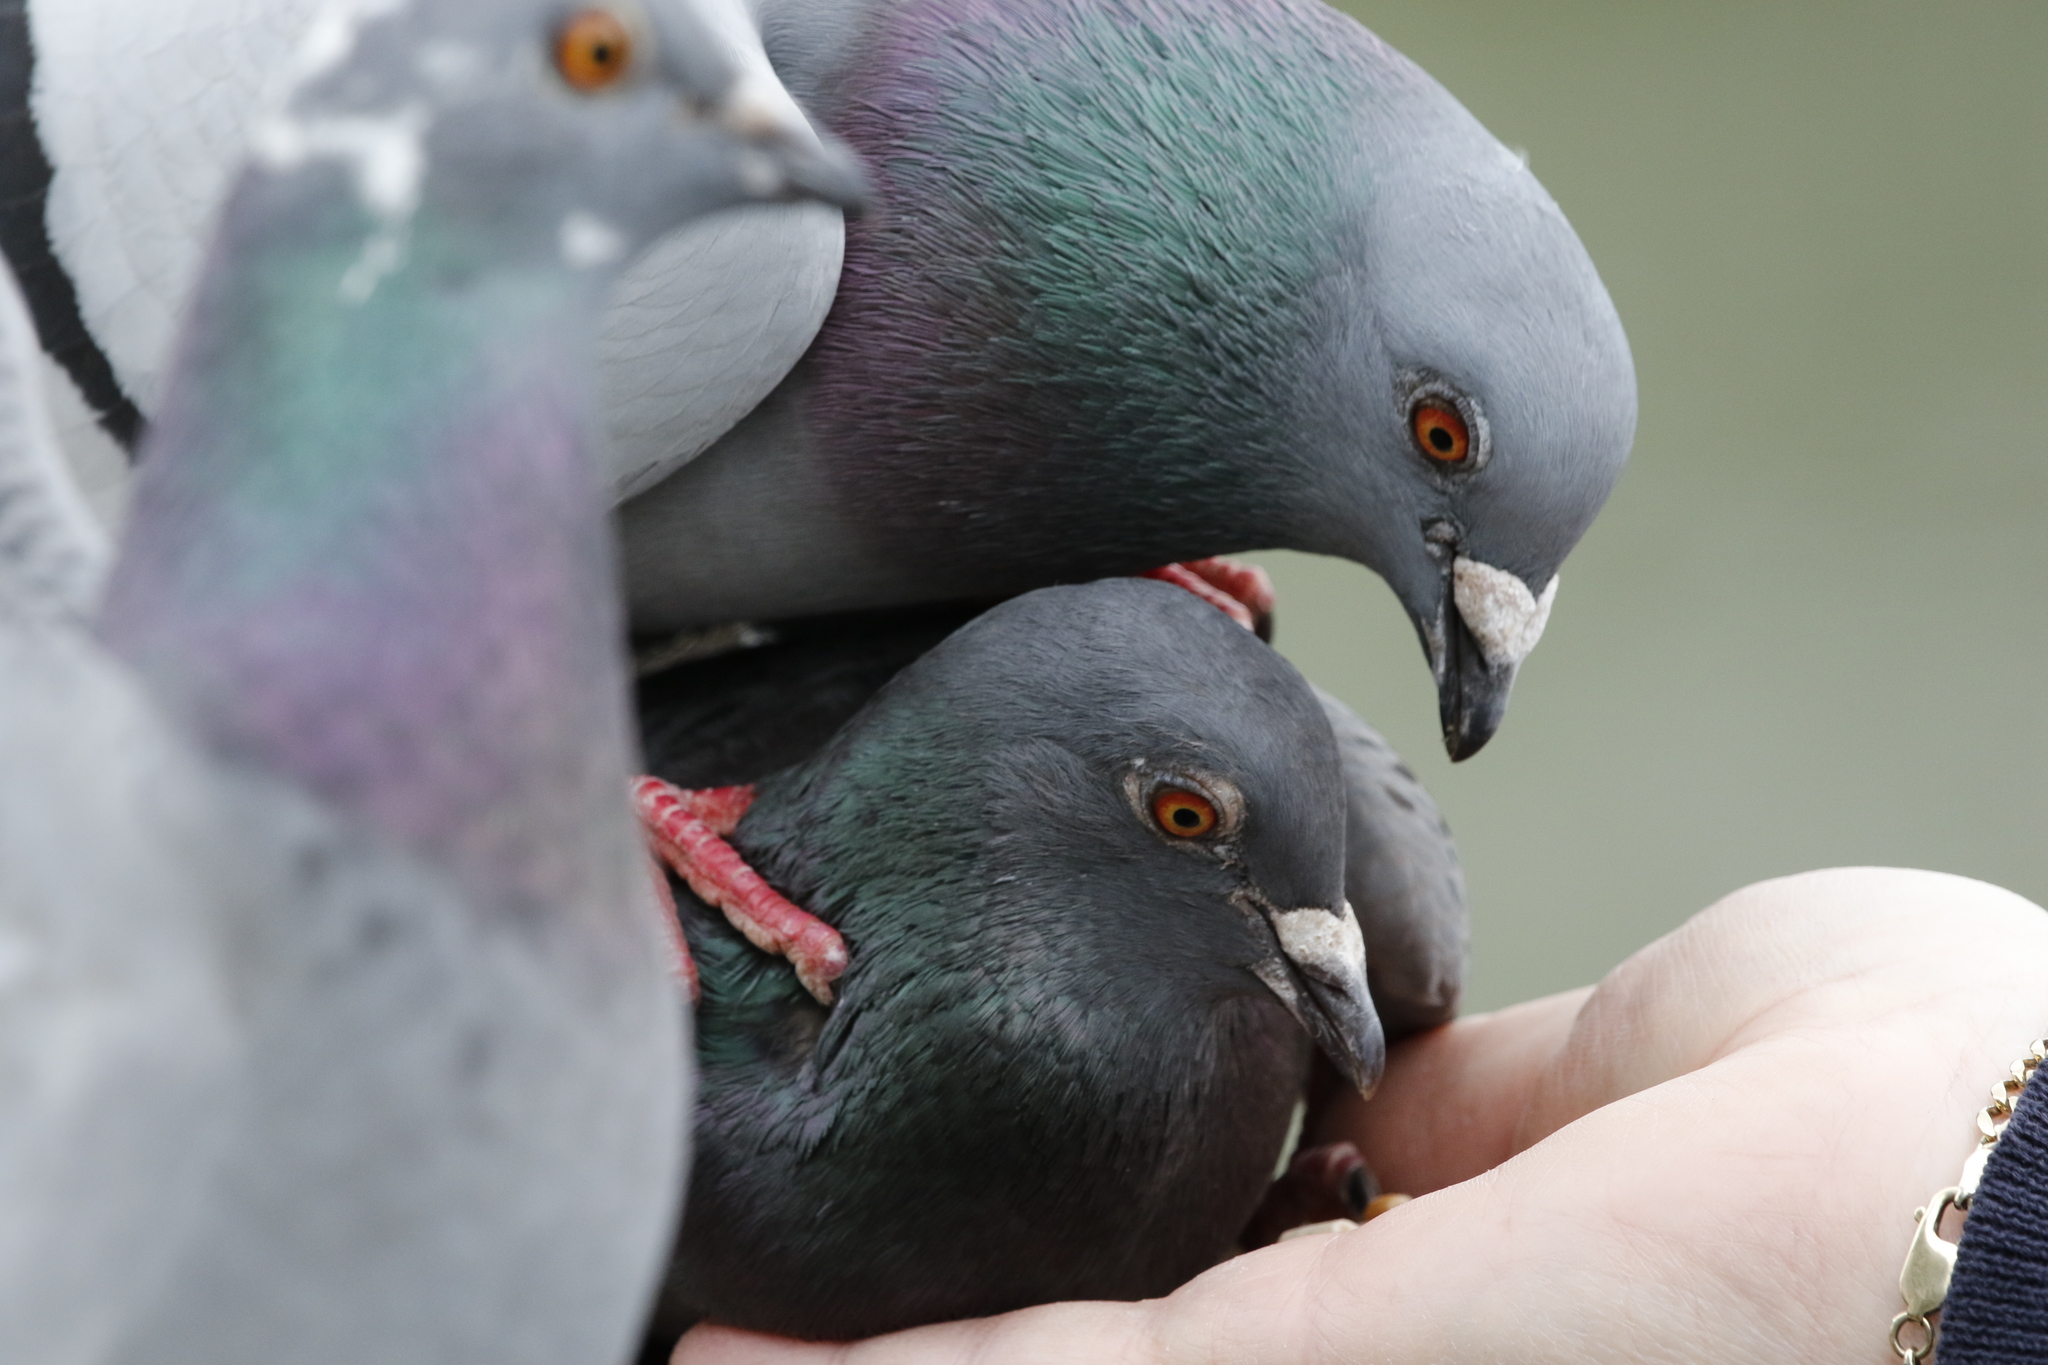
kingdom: Animalia
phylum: Chordata
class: Aves
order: Columbiformes
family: Columbidae
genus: Columba
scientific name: Columba livia
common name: Rock pigeon
